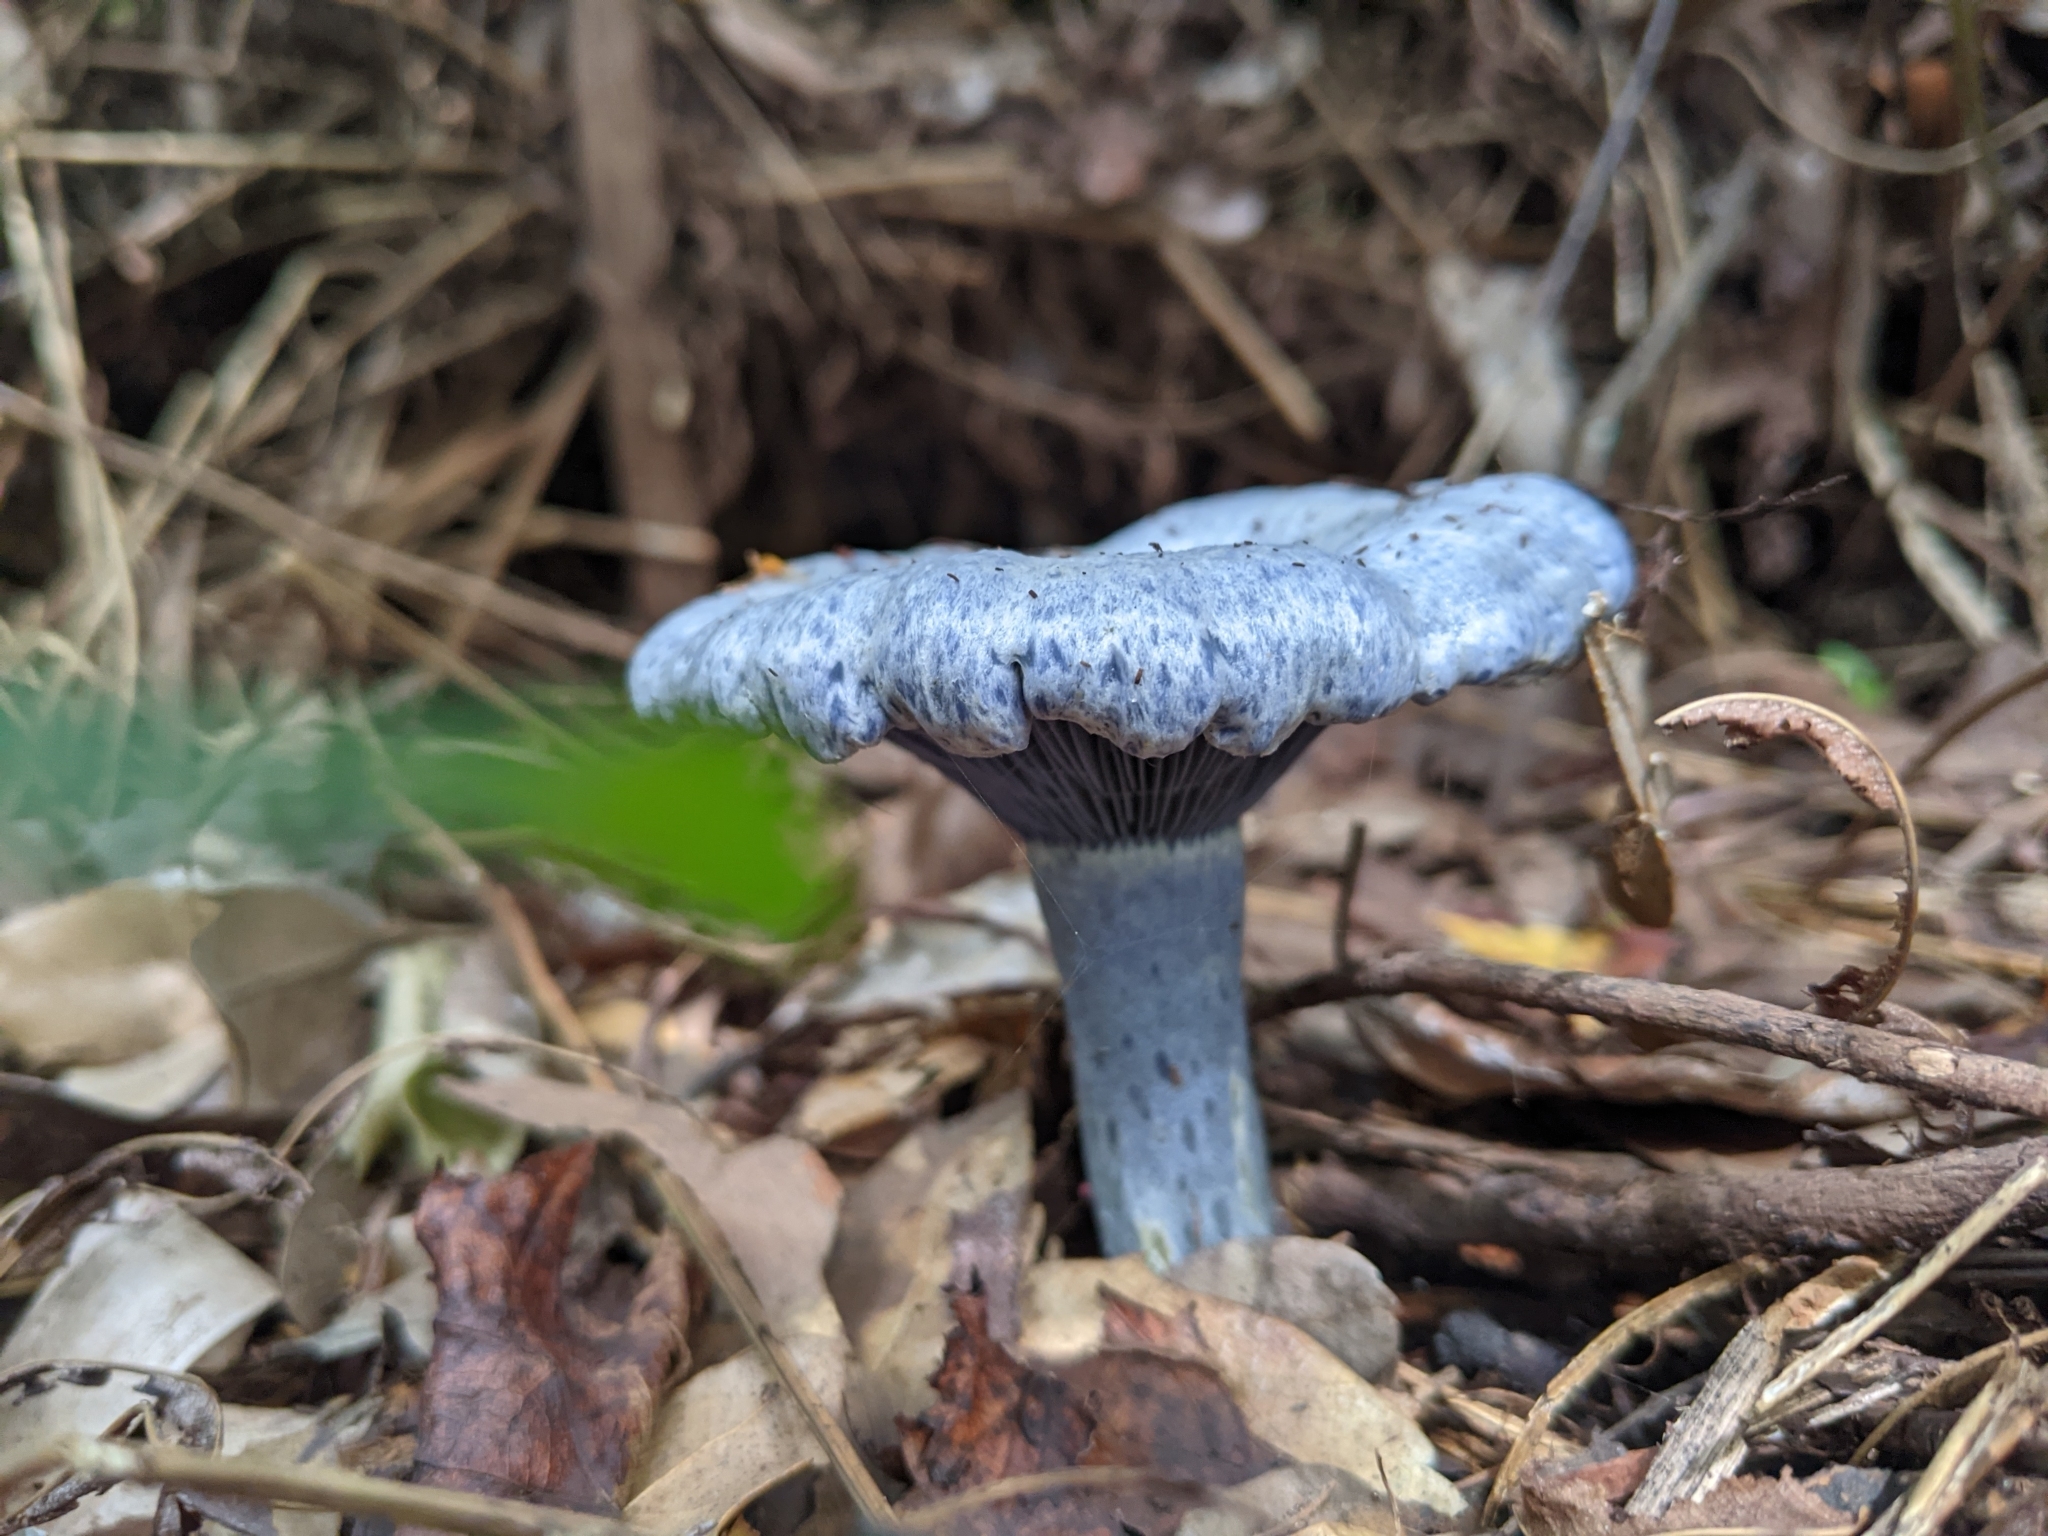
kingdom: Fungi
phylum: Basidiomycota
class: Agaricomycetes
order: Russulales
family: Russulaceae
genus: Lactarius
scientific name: Lactarius indigo
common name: Indigo milk cap
